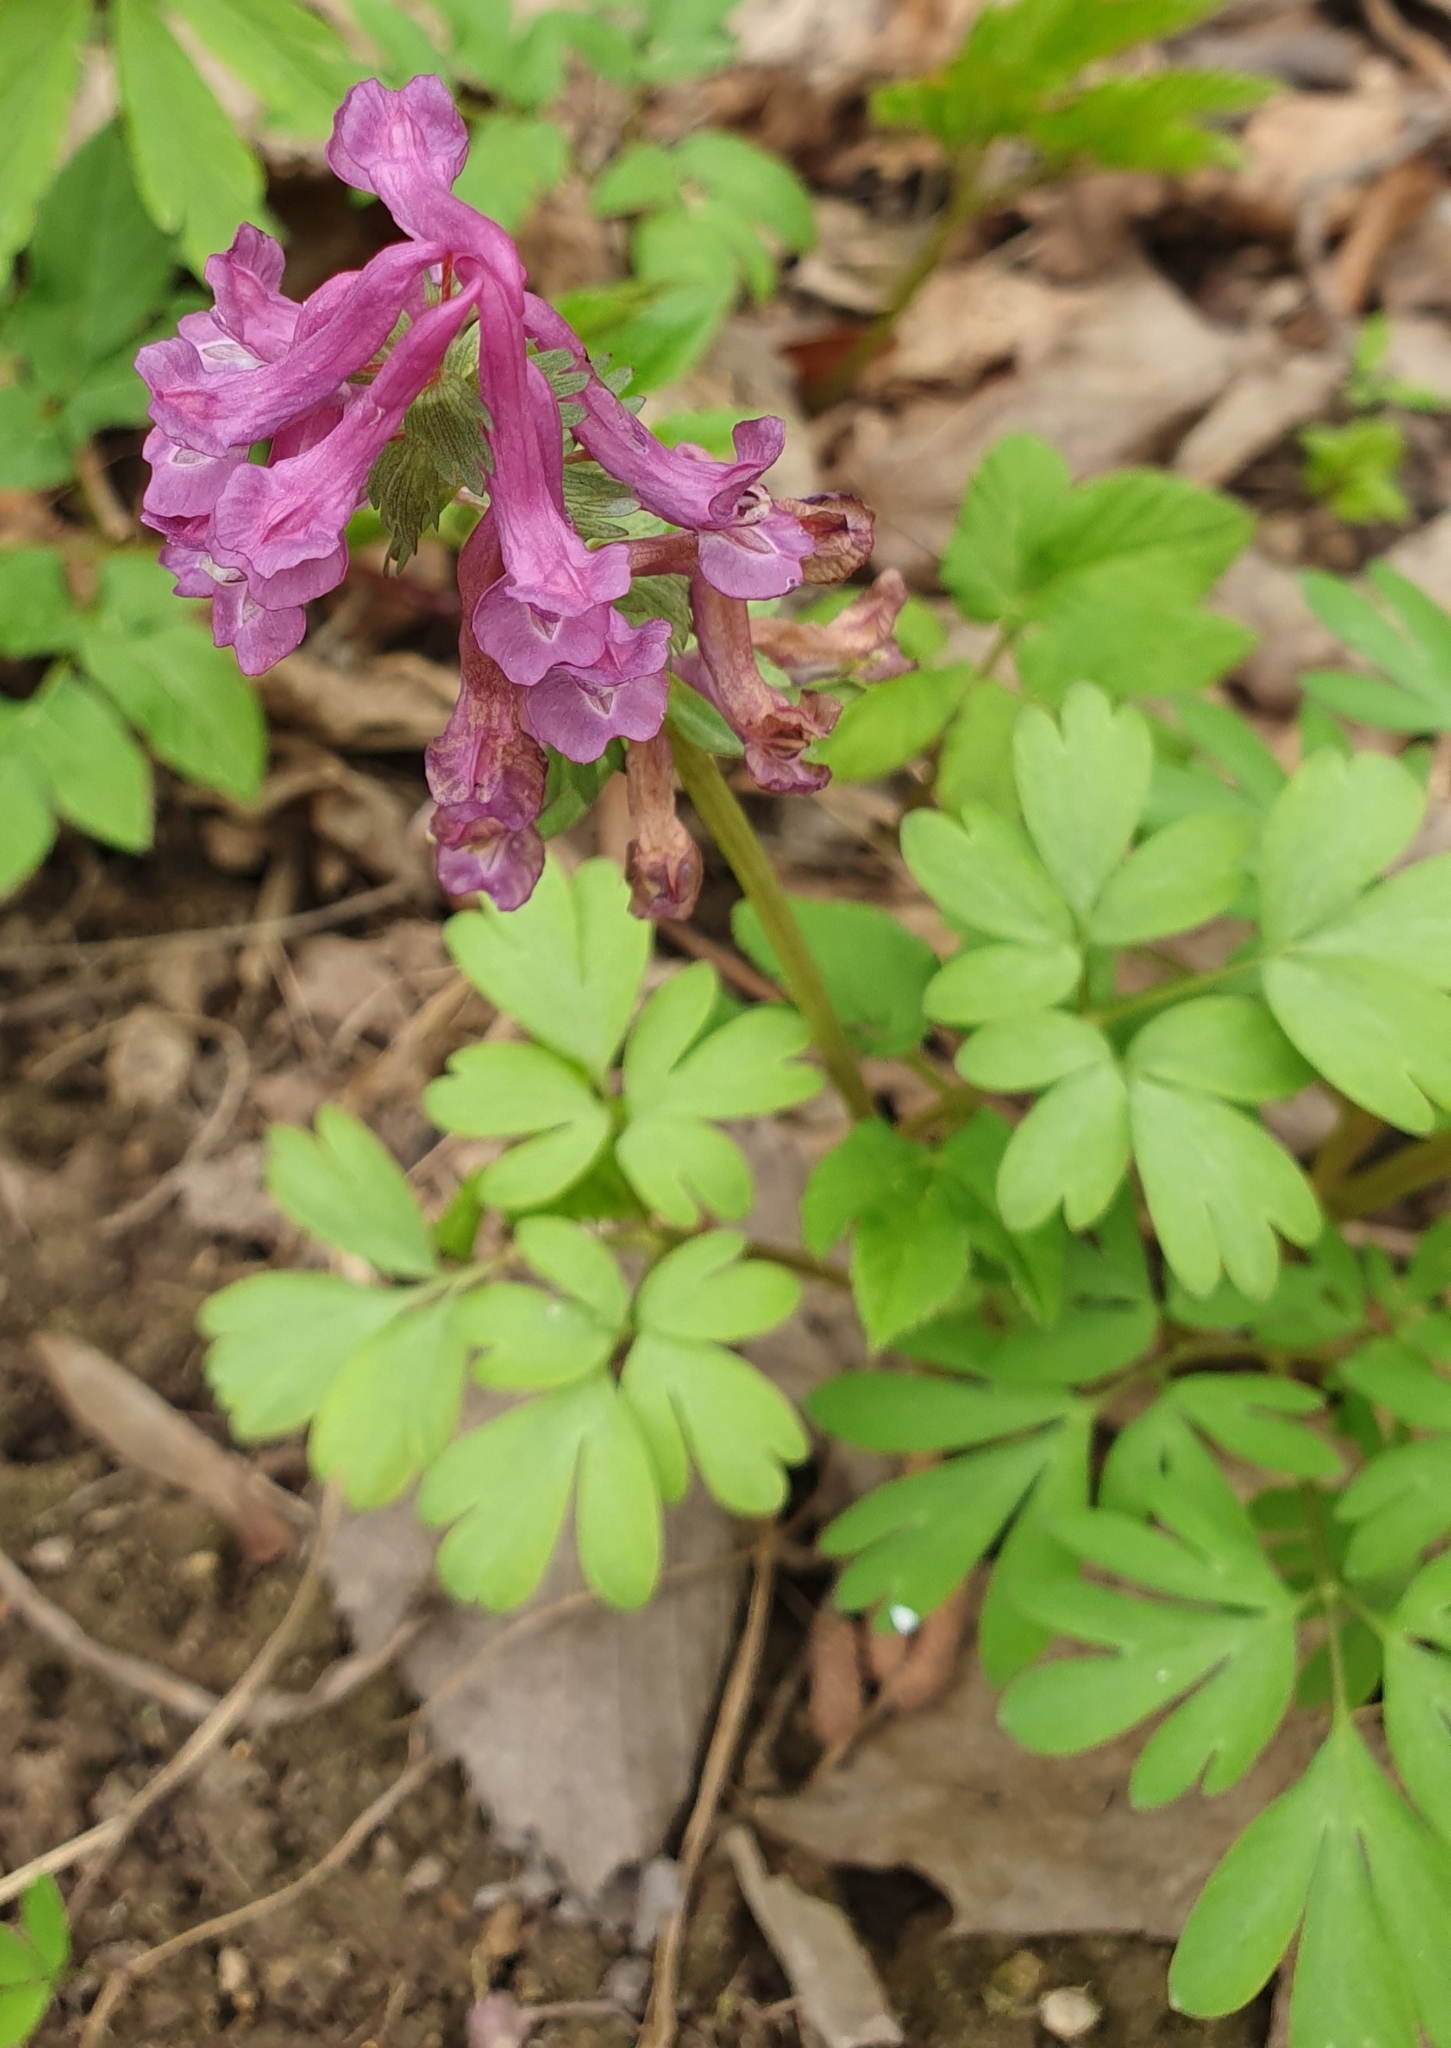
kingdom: Plantae
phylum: Tracheophyta
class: Magnoliopsida
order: Ranunculales
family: Papaveraceae
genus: Corydalis
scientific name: Corydalis solida
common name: Bird-in-a-bush
